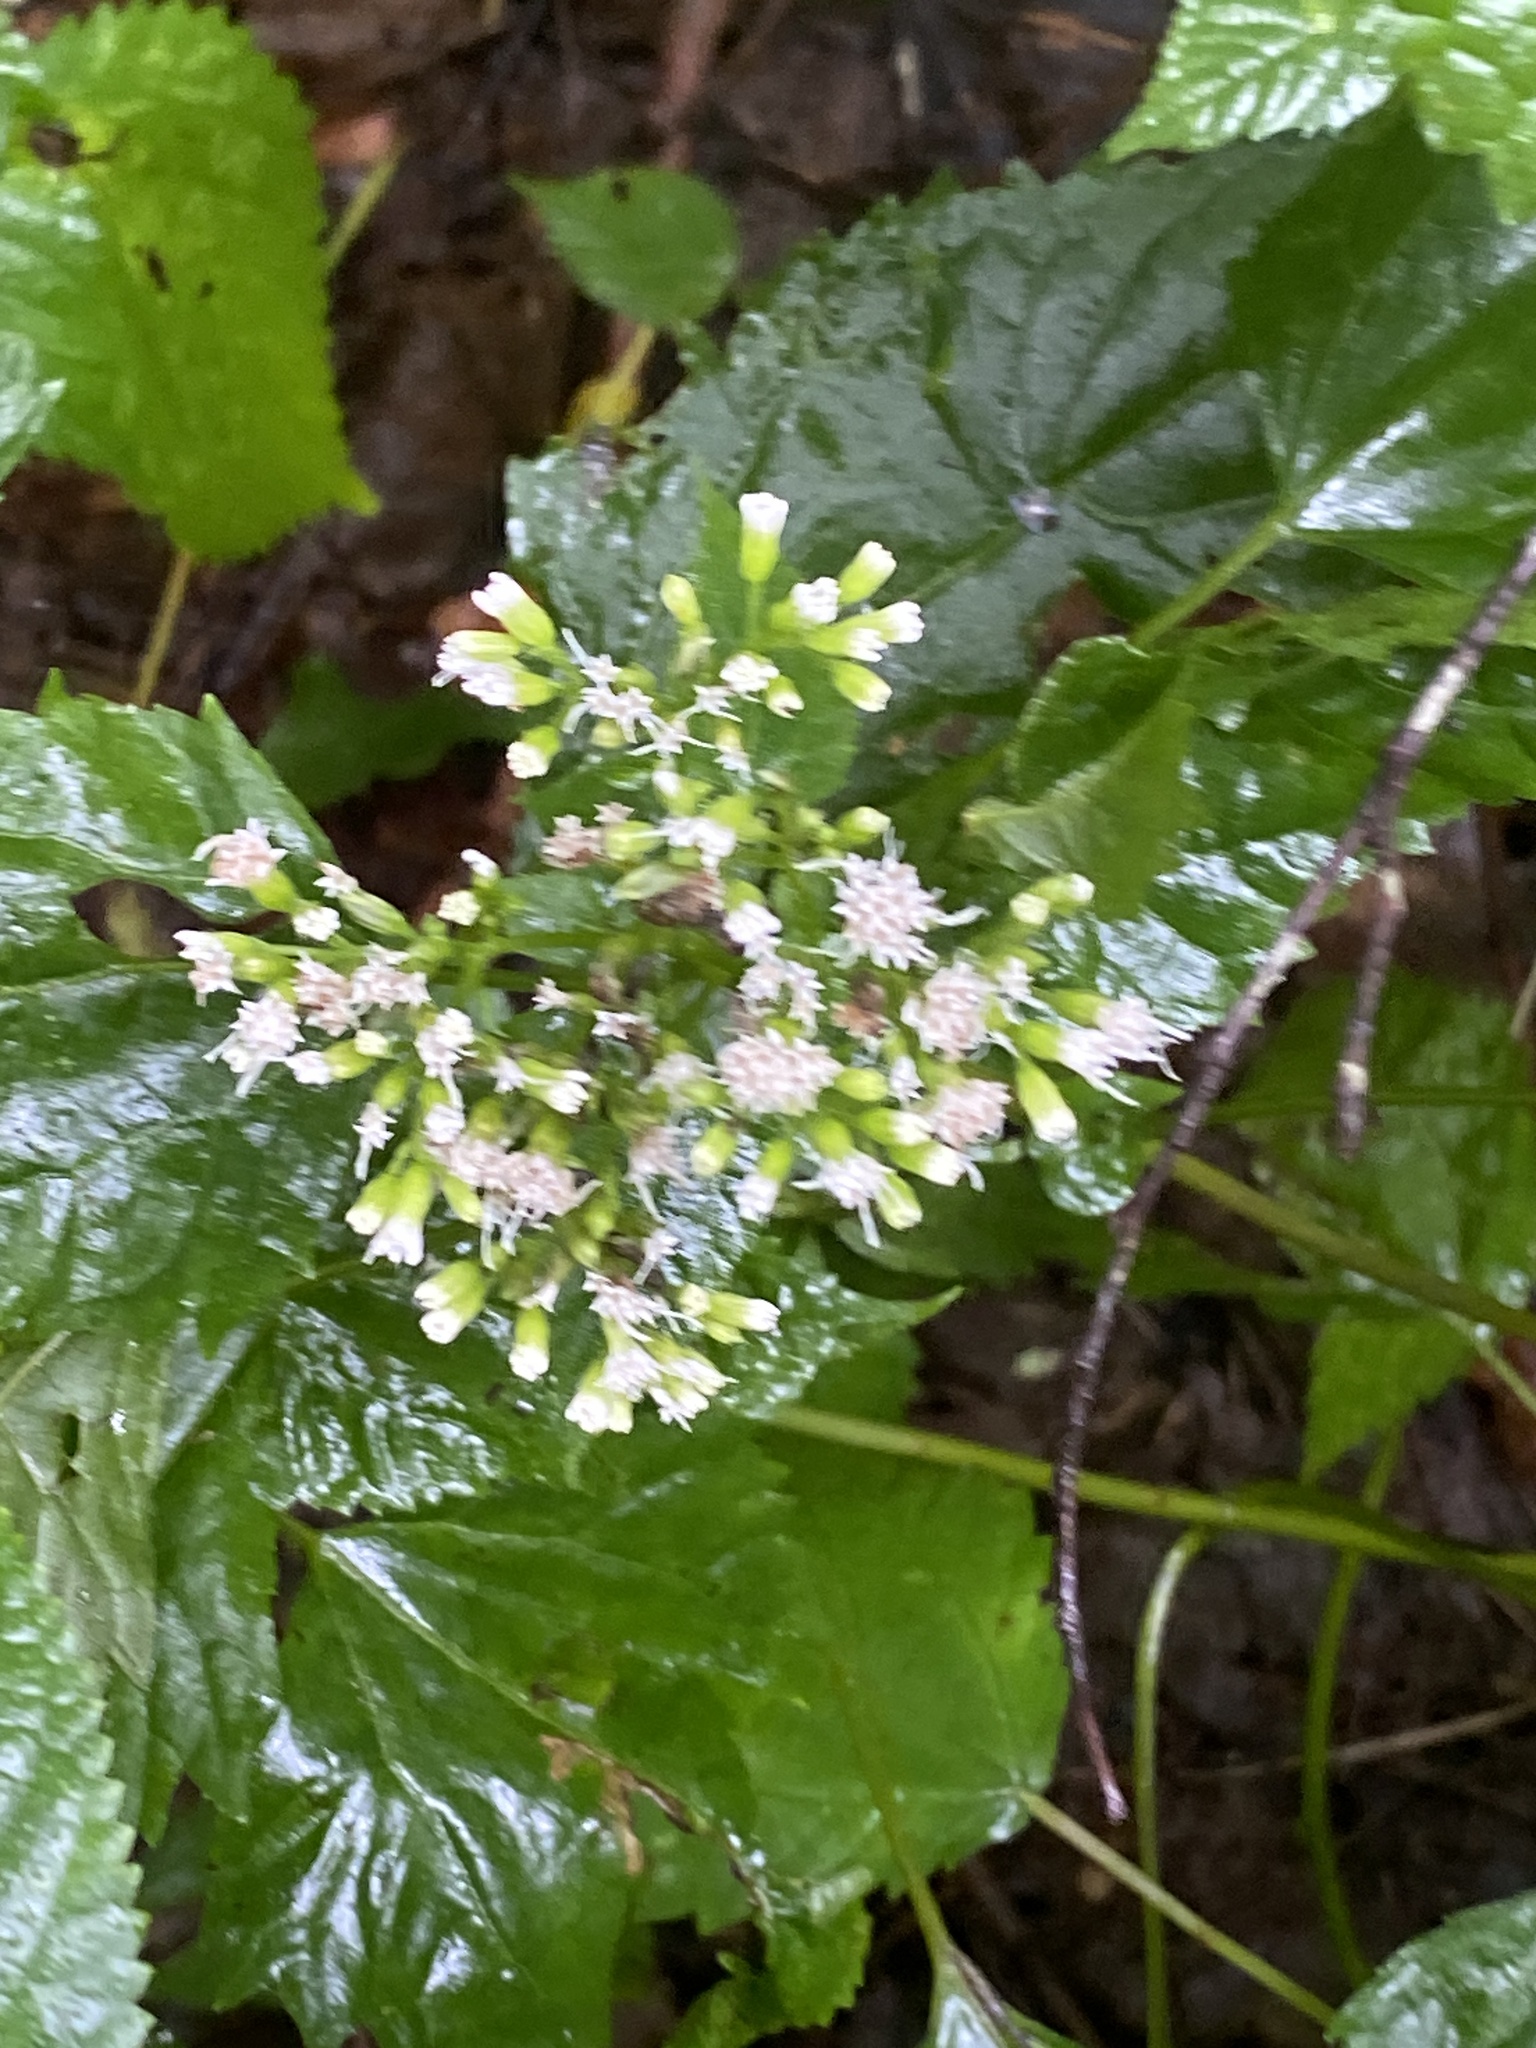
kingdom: Plantae
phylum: Tracheophyta
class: Magnoliopsida
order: Asterales
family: Asteraceae
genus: Ageratina
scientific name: Ageratina altissima
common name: White snakeroot
